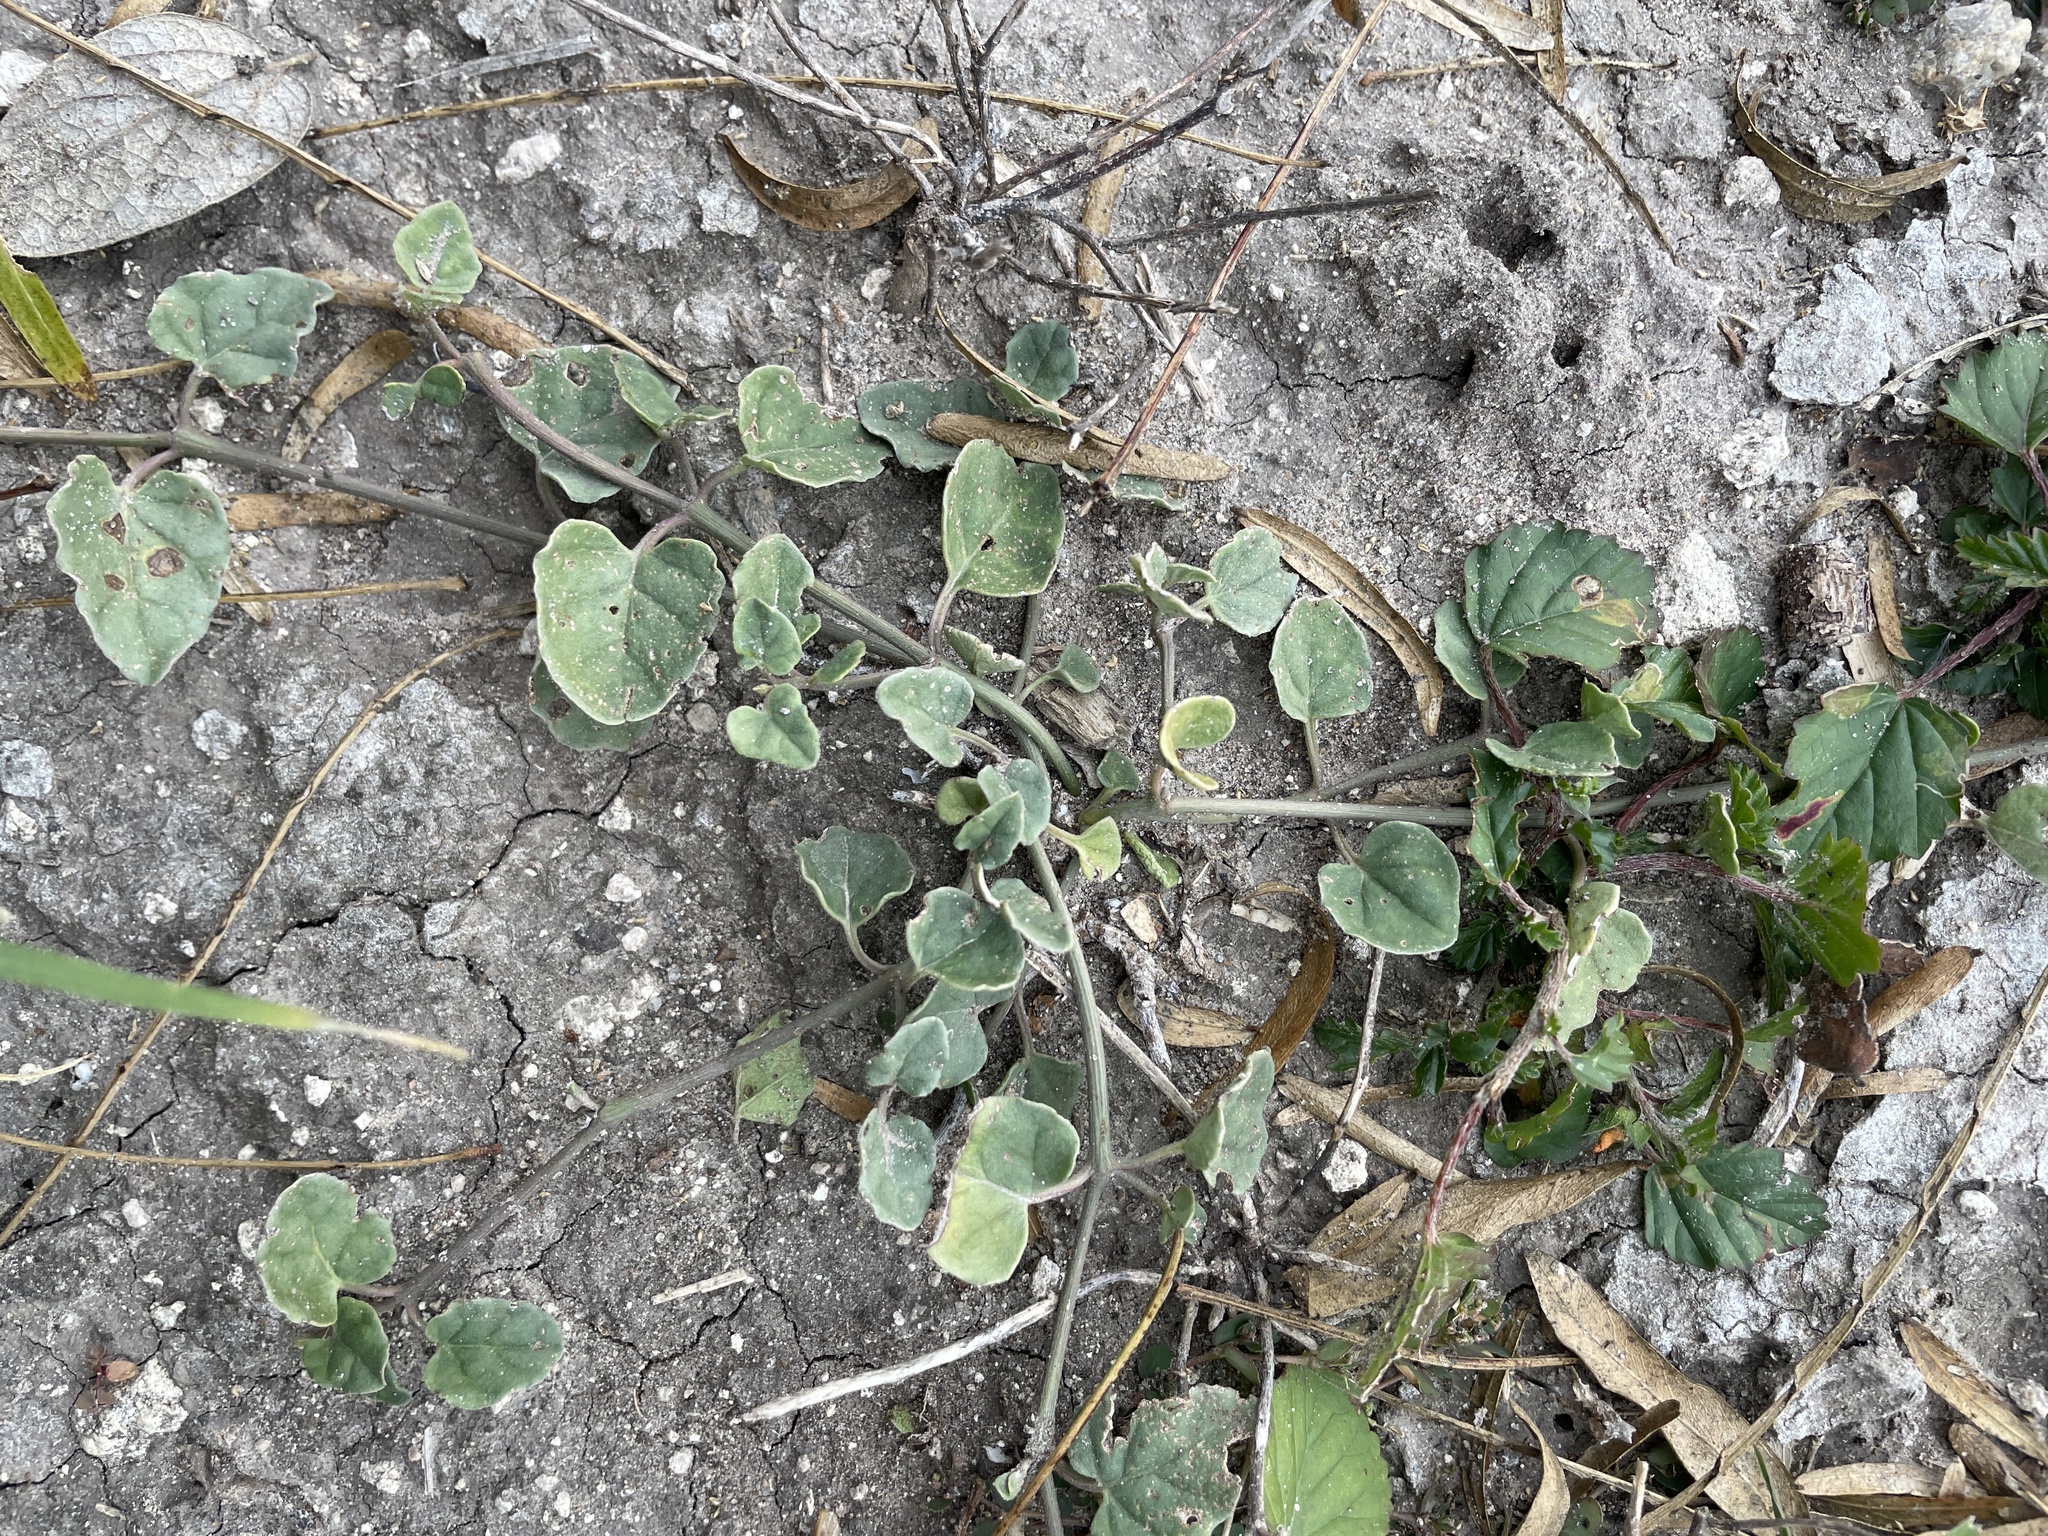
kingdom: Plantae
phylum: Tracheophyta
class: Magnoliopsida
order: Caryophyllales
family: Nyctaginaceae
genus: Acleisanthes
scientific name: Acleisanthes obtusa
